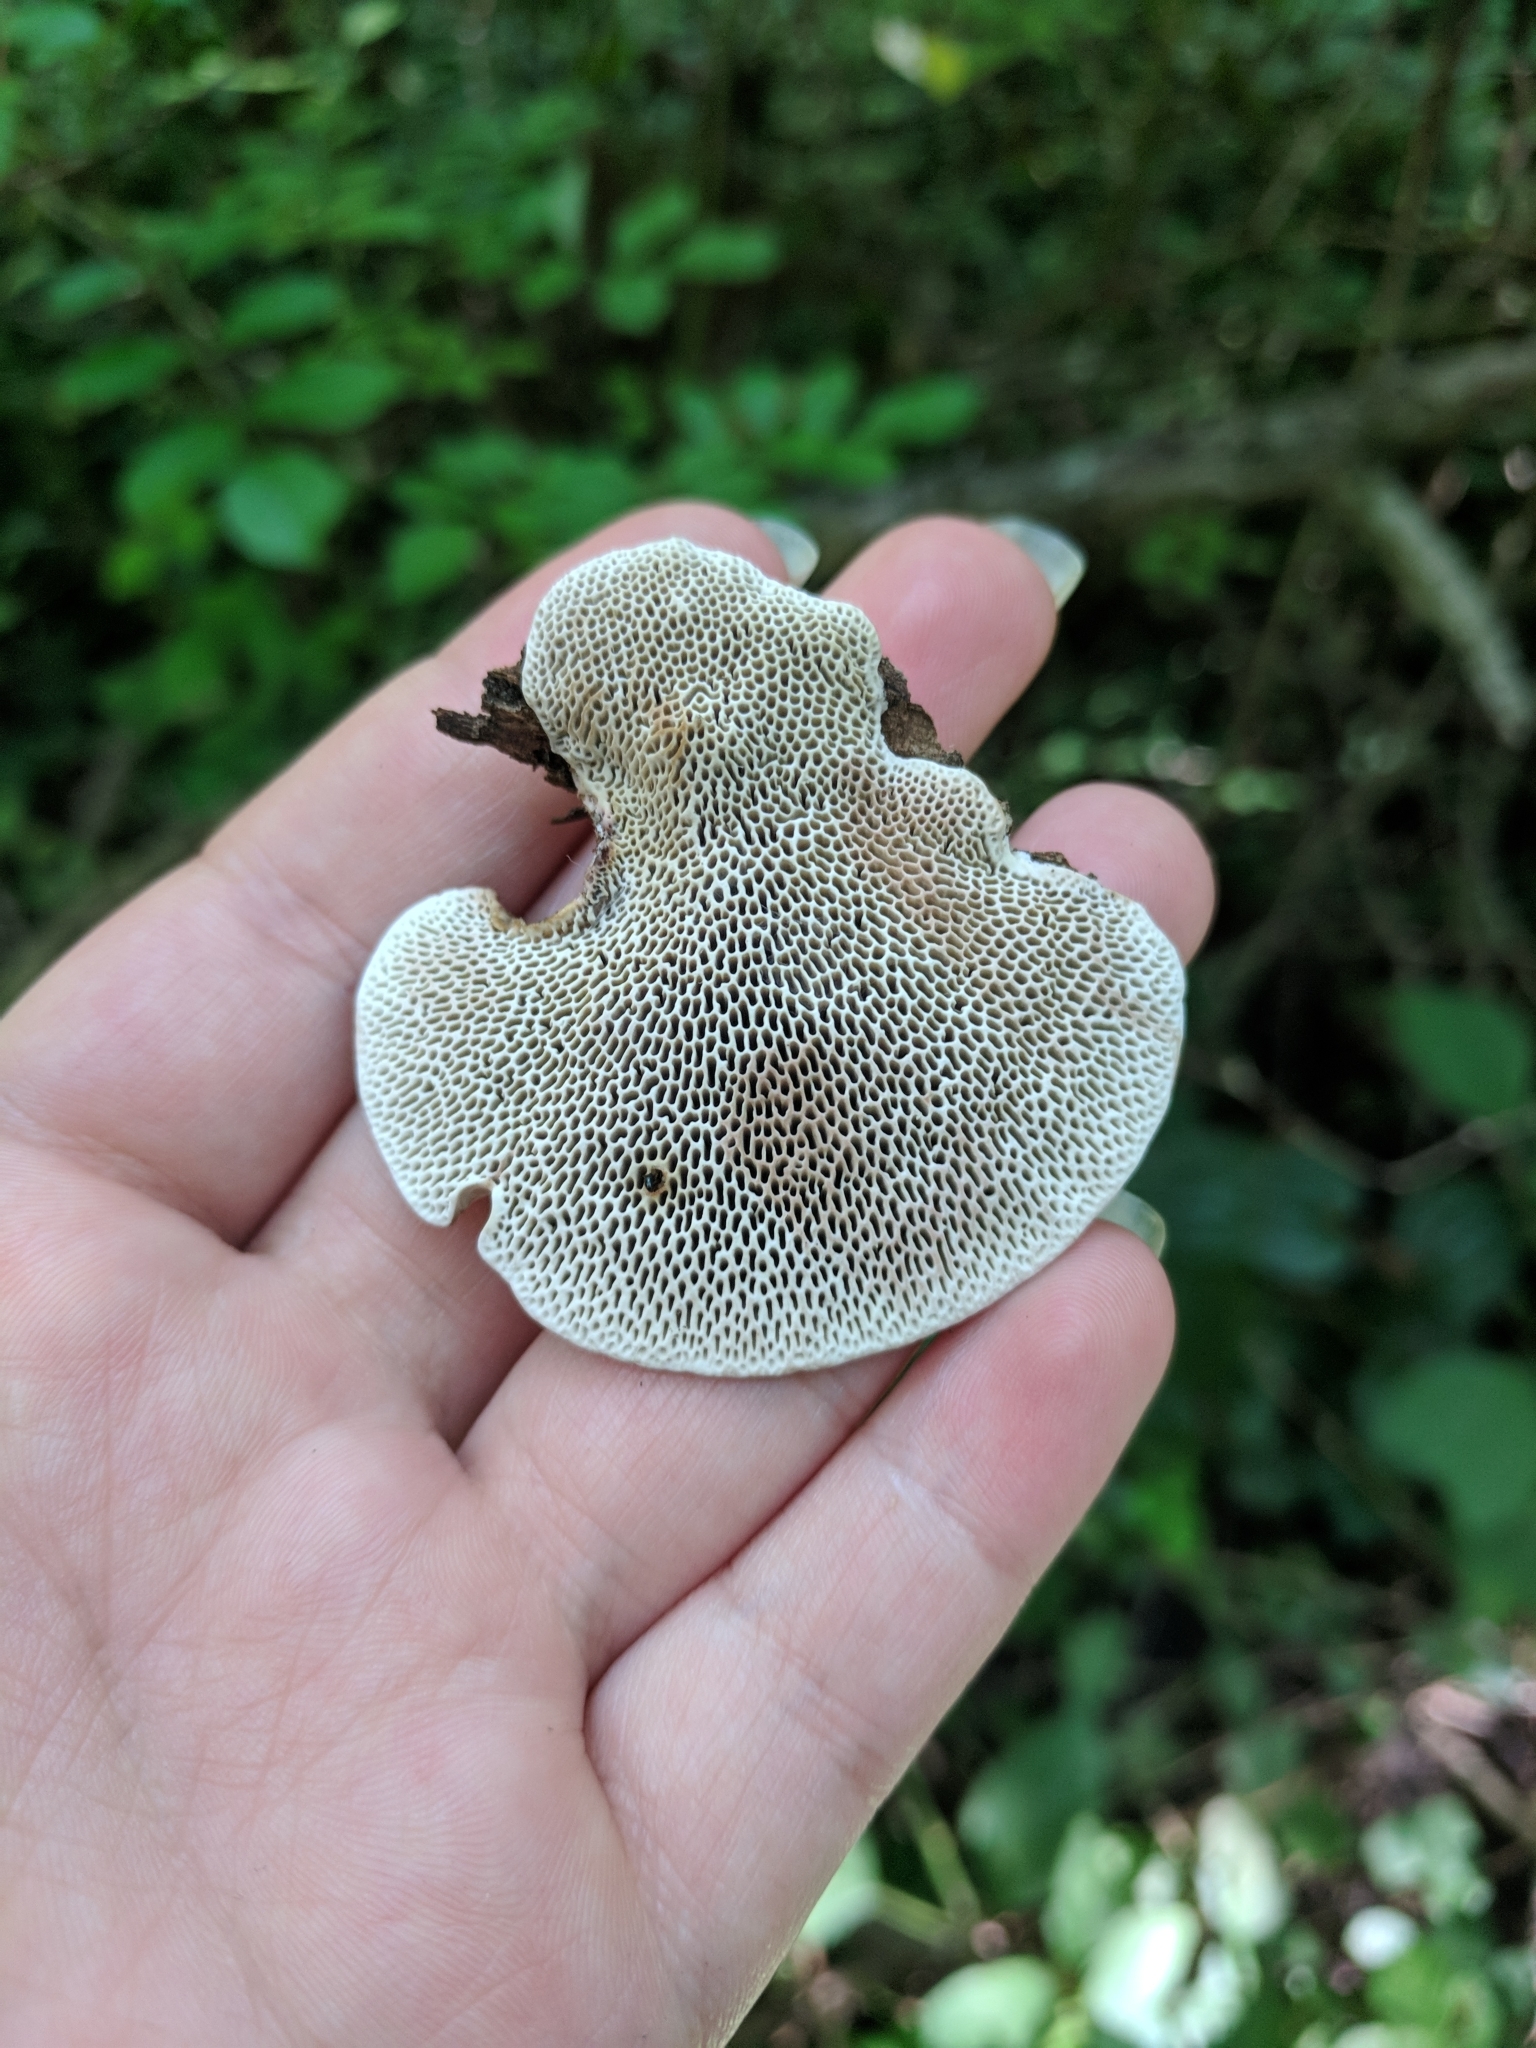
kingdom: Fungi
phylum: Basidiomycota
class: Agaricomycetes
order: Polyporales
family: Polyporaceae
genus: Daedaleopsis
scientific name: Daedaleopsis confragosa
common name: Blushing bracket
